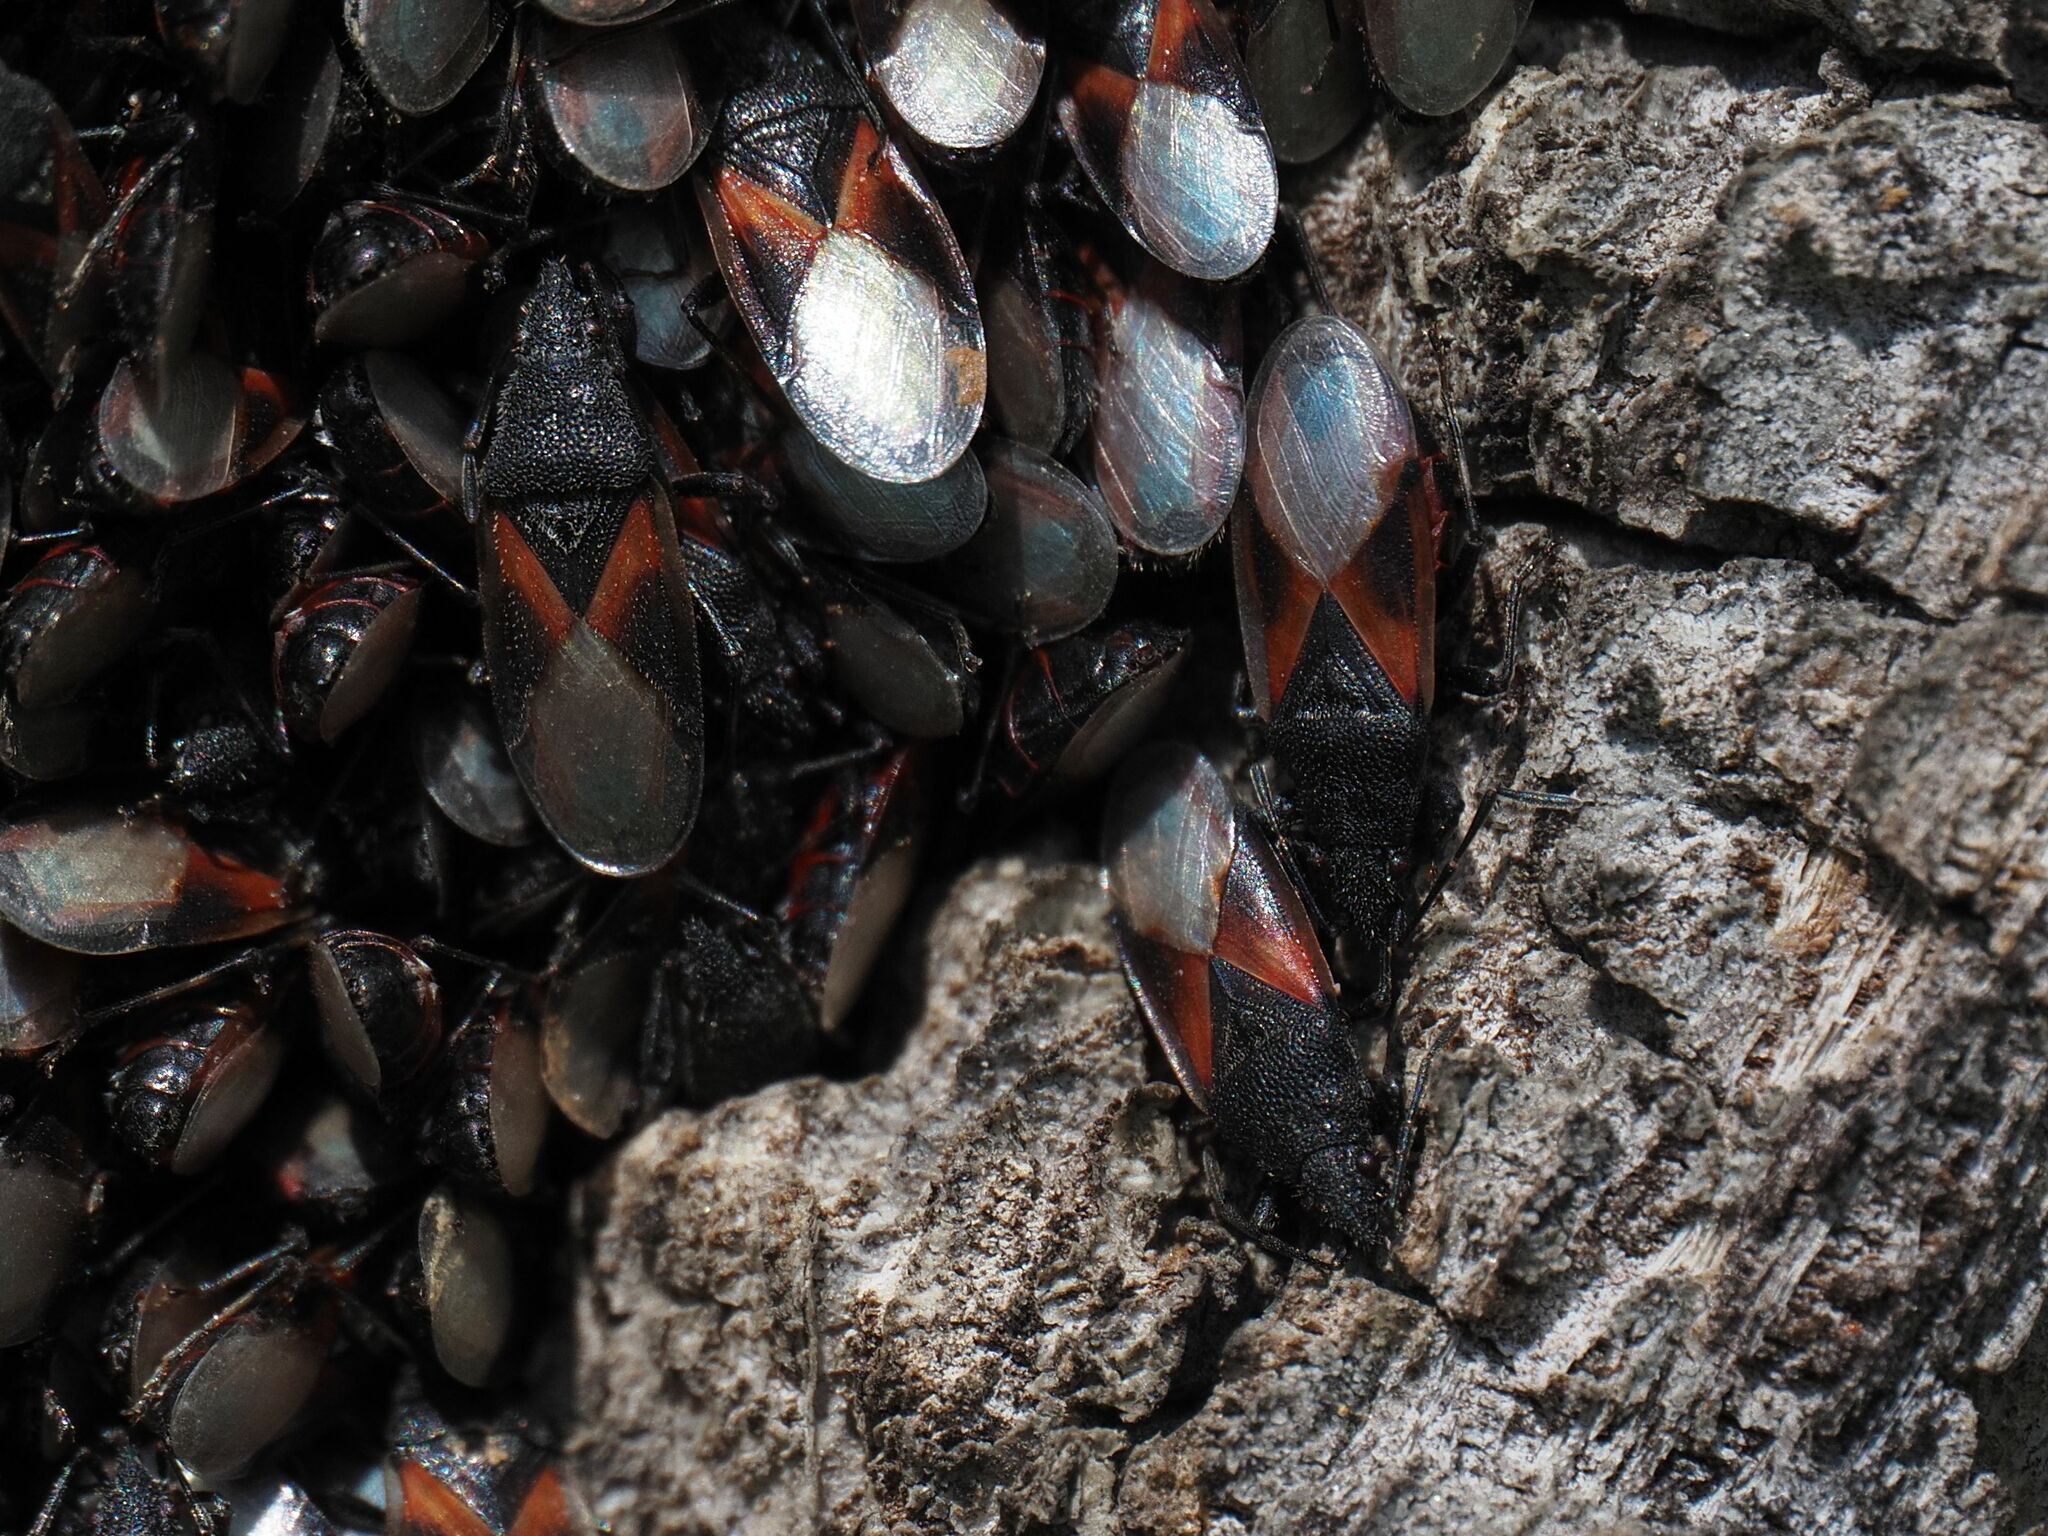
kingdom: Animalia
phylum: Arthropoda
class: Insecta
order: Hemiptera
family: Oxycarenidae
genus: Oxycarenus
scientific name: Oxycarenus lavaterae
